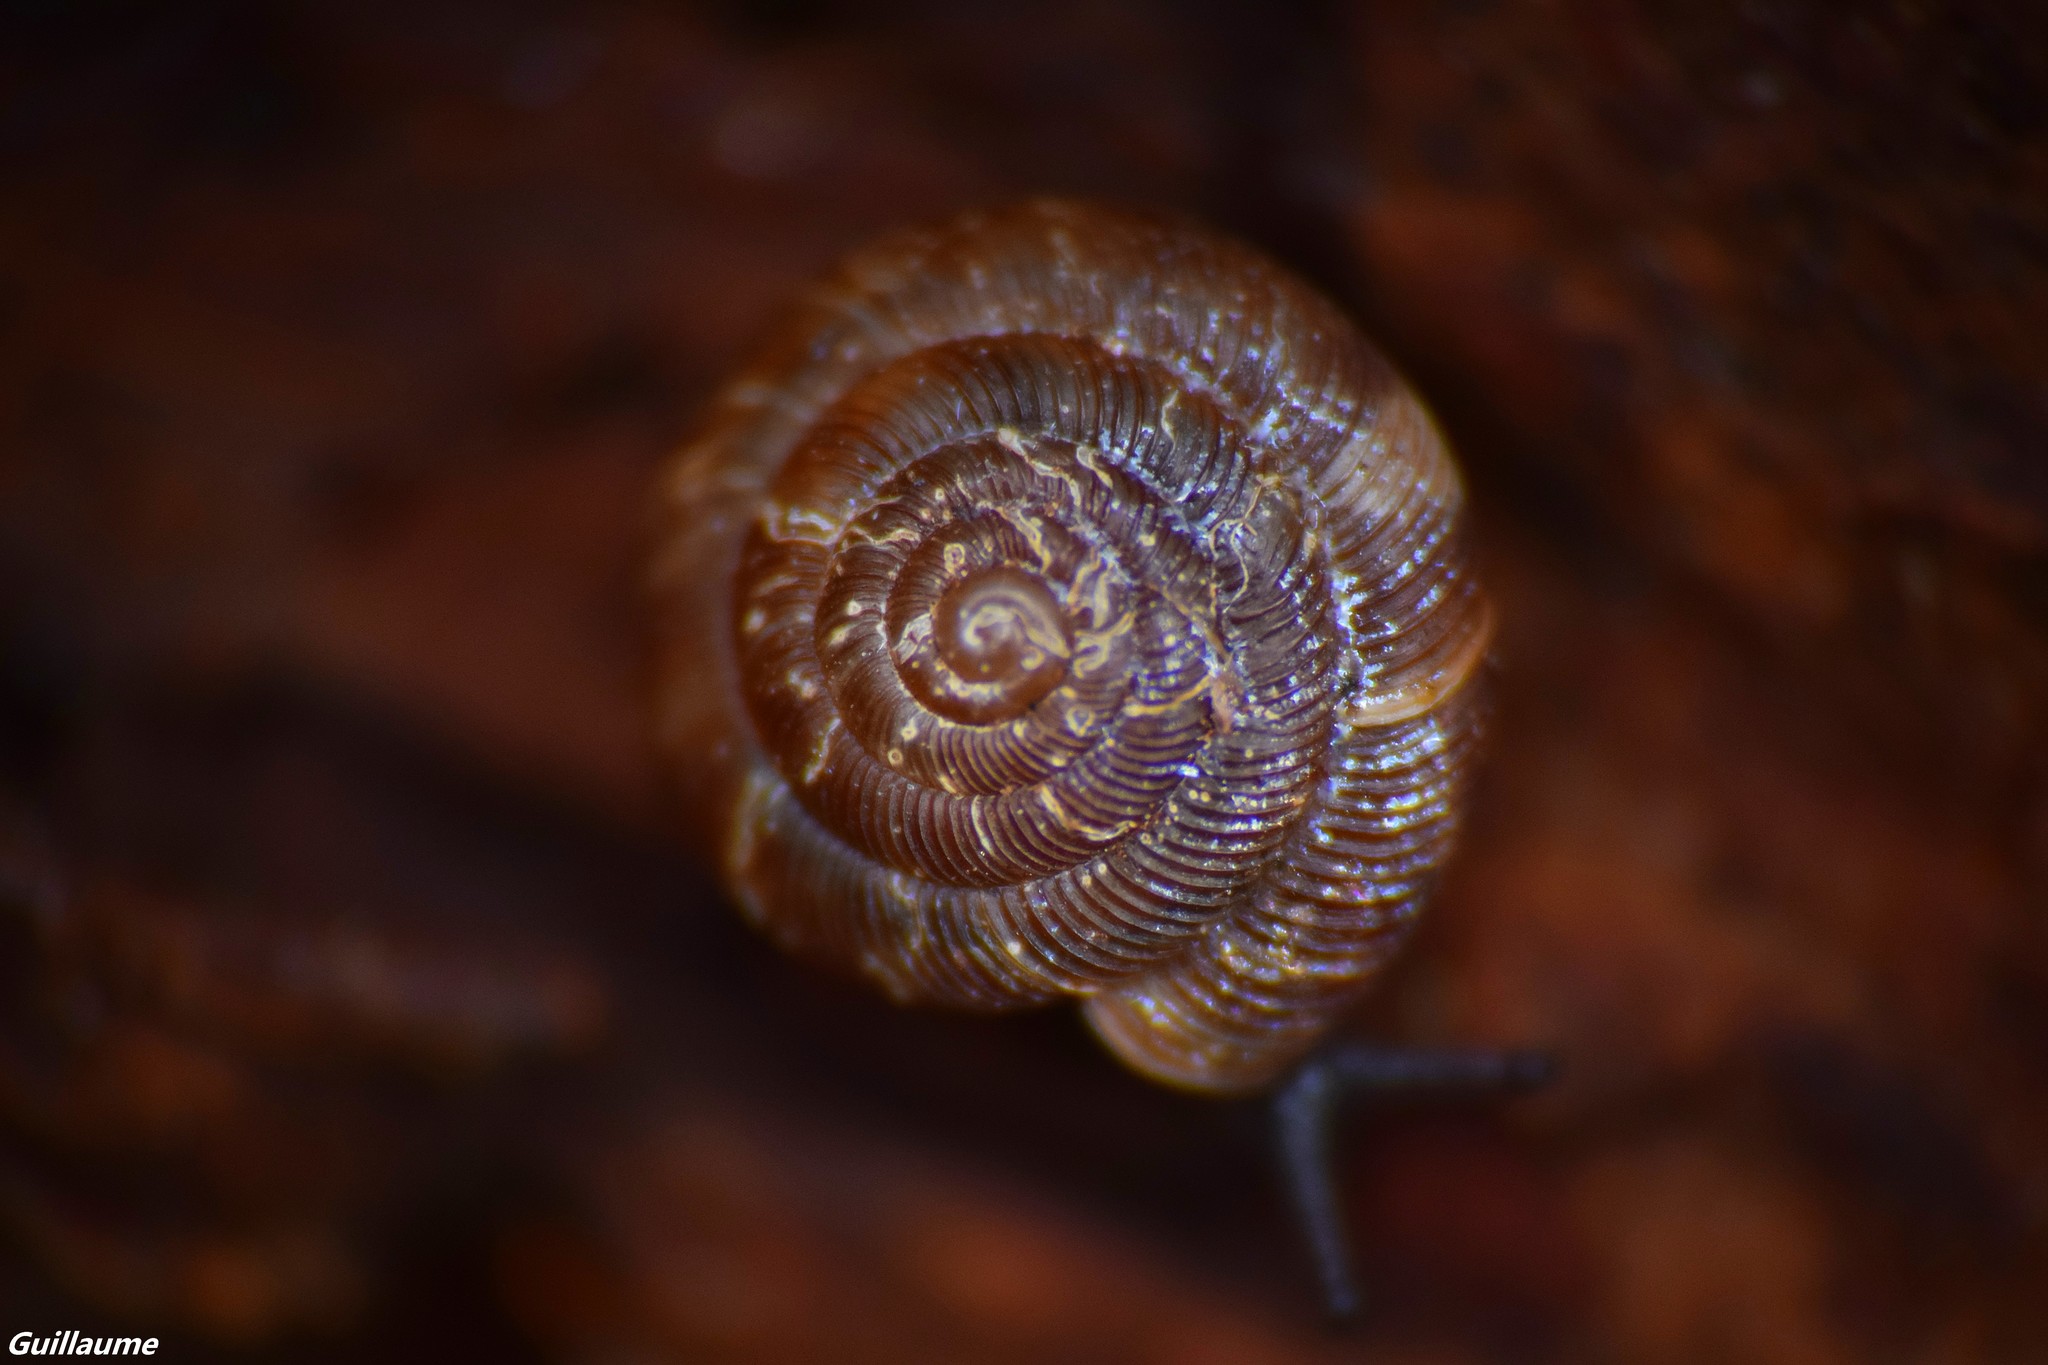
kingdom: Animalia
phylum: Mollusca
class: Gastropoda
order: Stylommatophora
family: Discidae
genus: Discus
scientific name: Discus rotundatus
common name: Rounded snail
